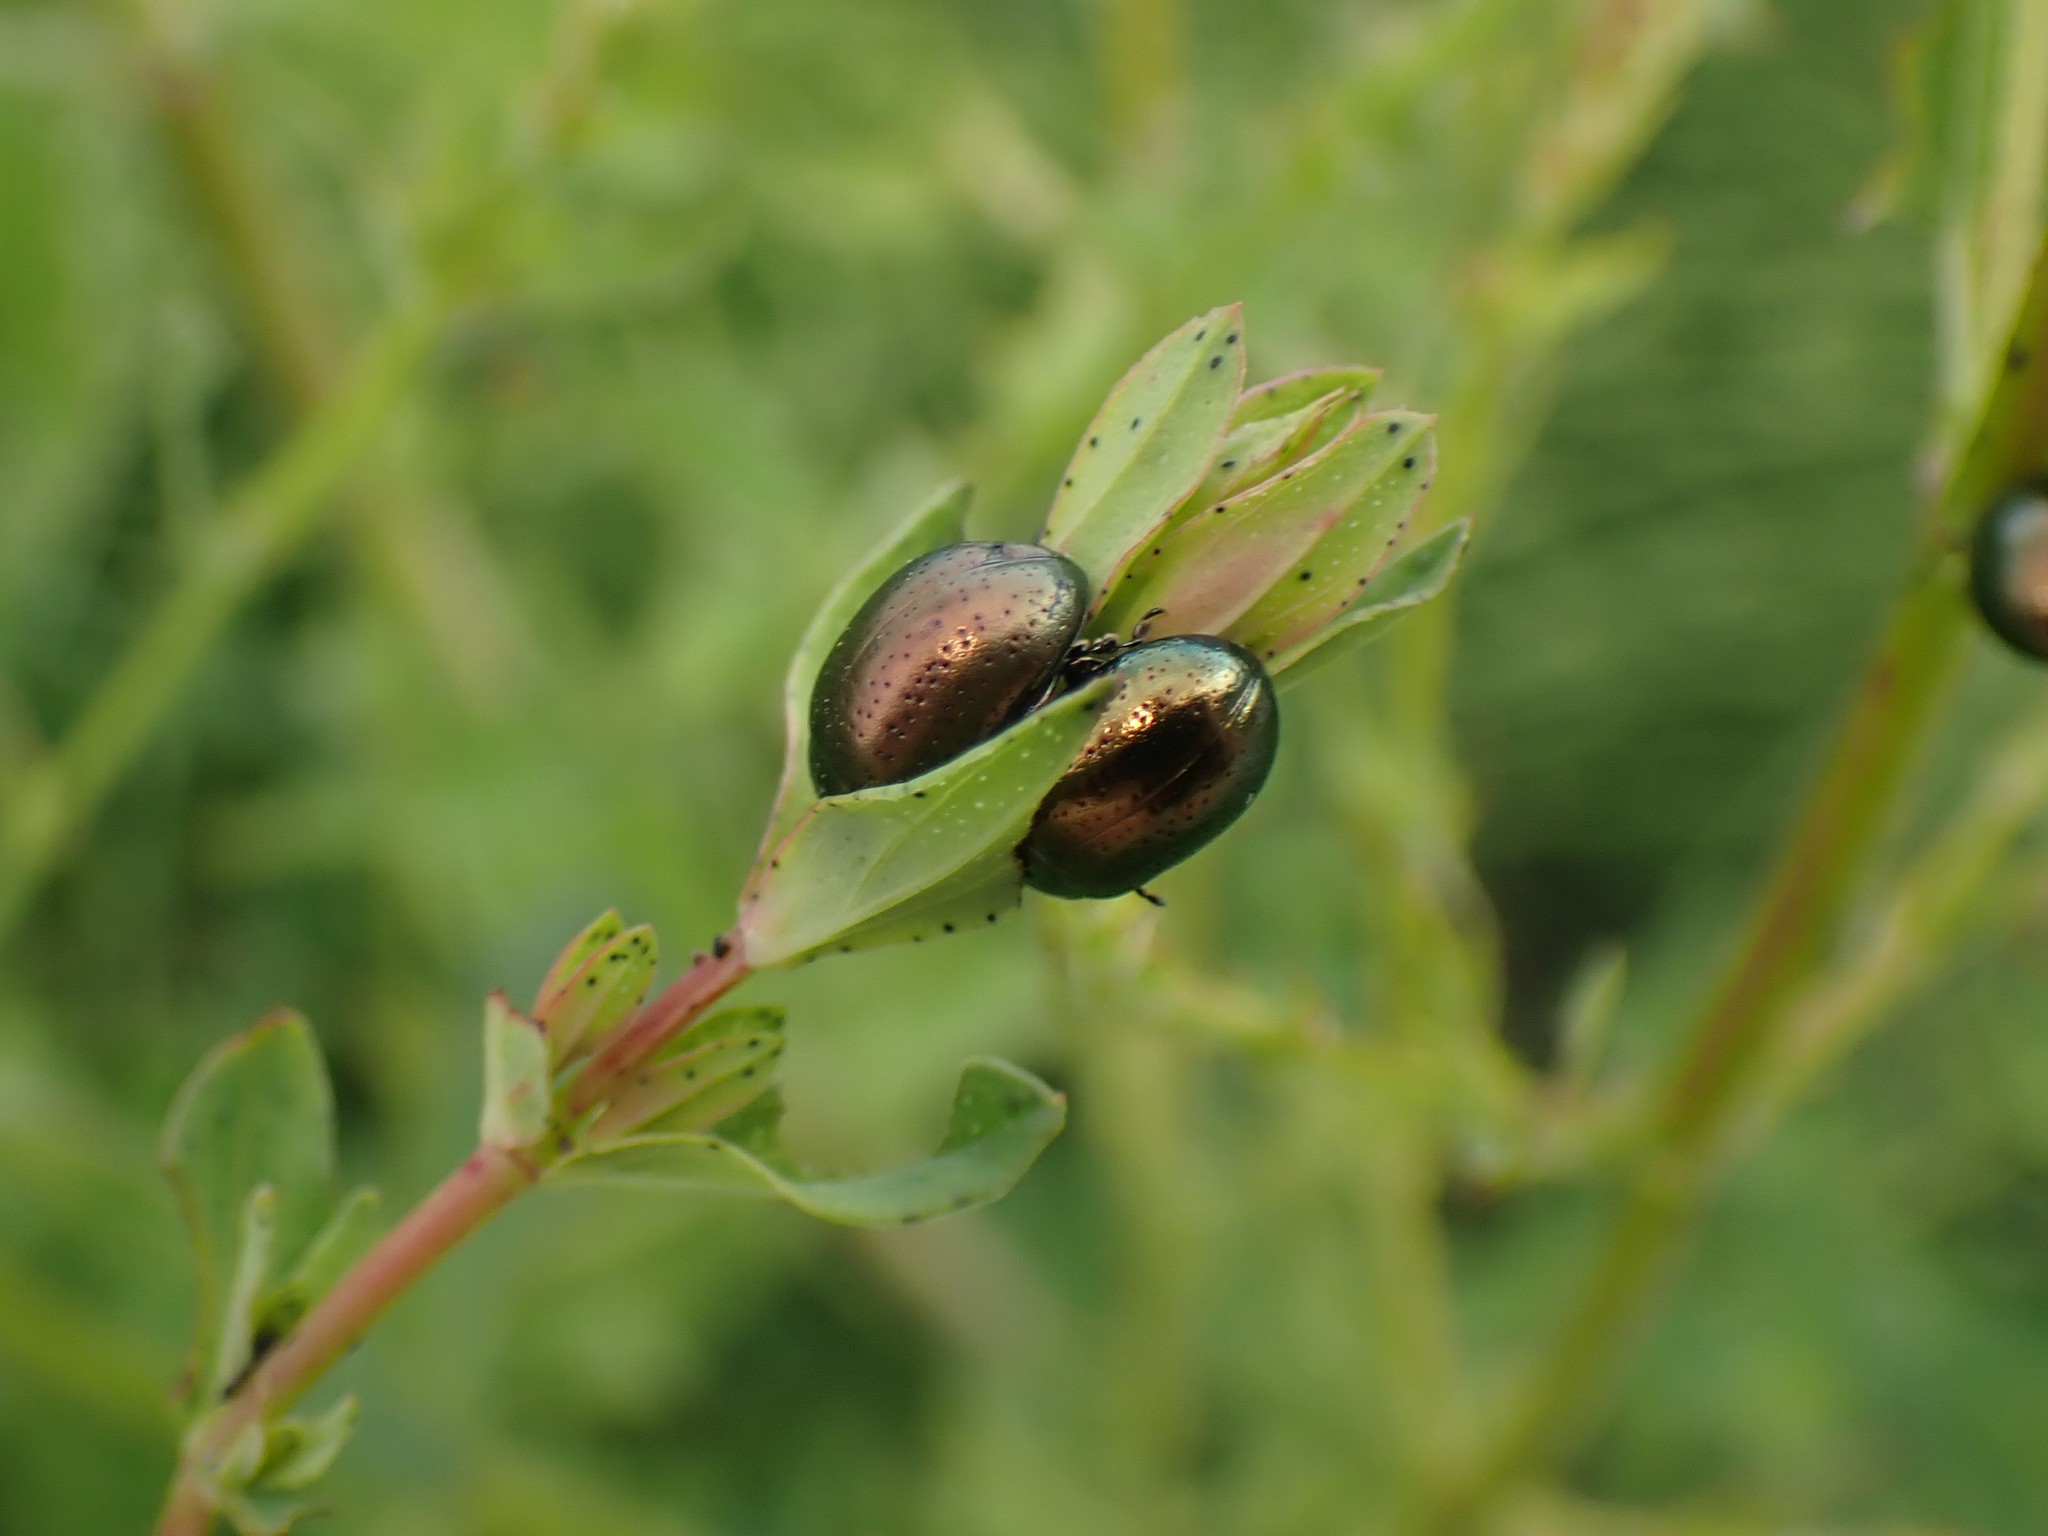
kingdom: Animalia
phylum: Arthropoda
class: Insecta
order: Coleoptera
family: Chrysomelidae
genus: Chrysolina
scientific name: Chrysolina hyperici
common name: St. johnswort beetle
